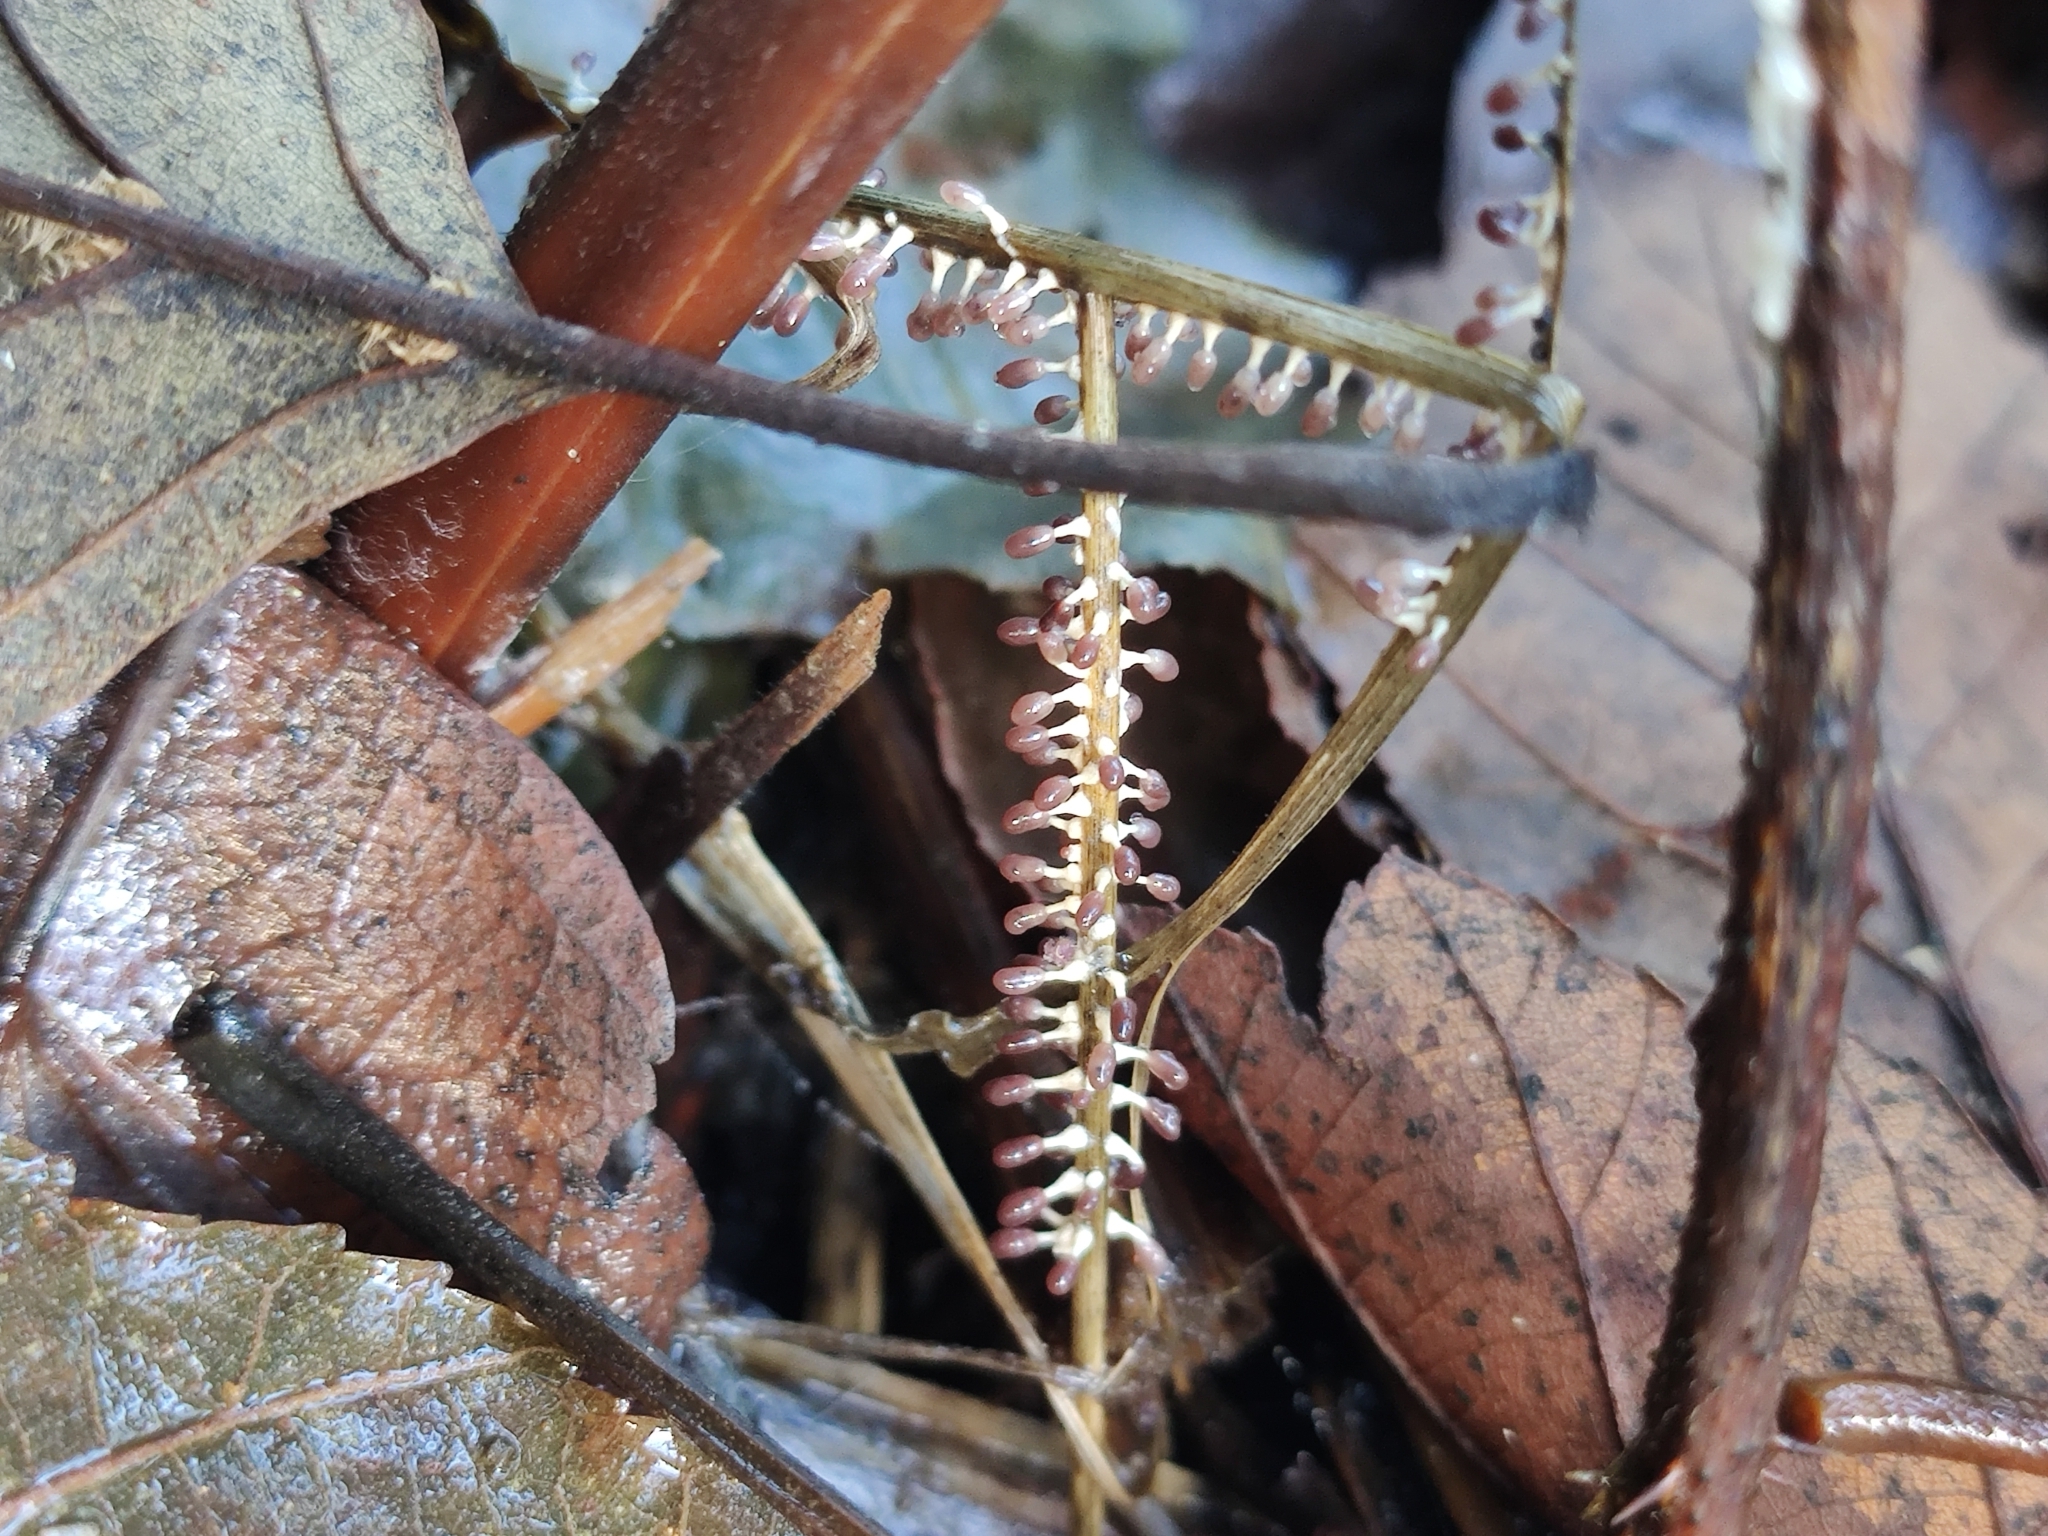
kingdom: Protozoa
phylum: Mycetozoa
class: Myxomycetes
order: Physarales
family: Didymiaceae
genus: Diachea
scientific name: Diachea leucopodia
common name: White-footed slime
